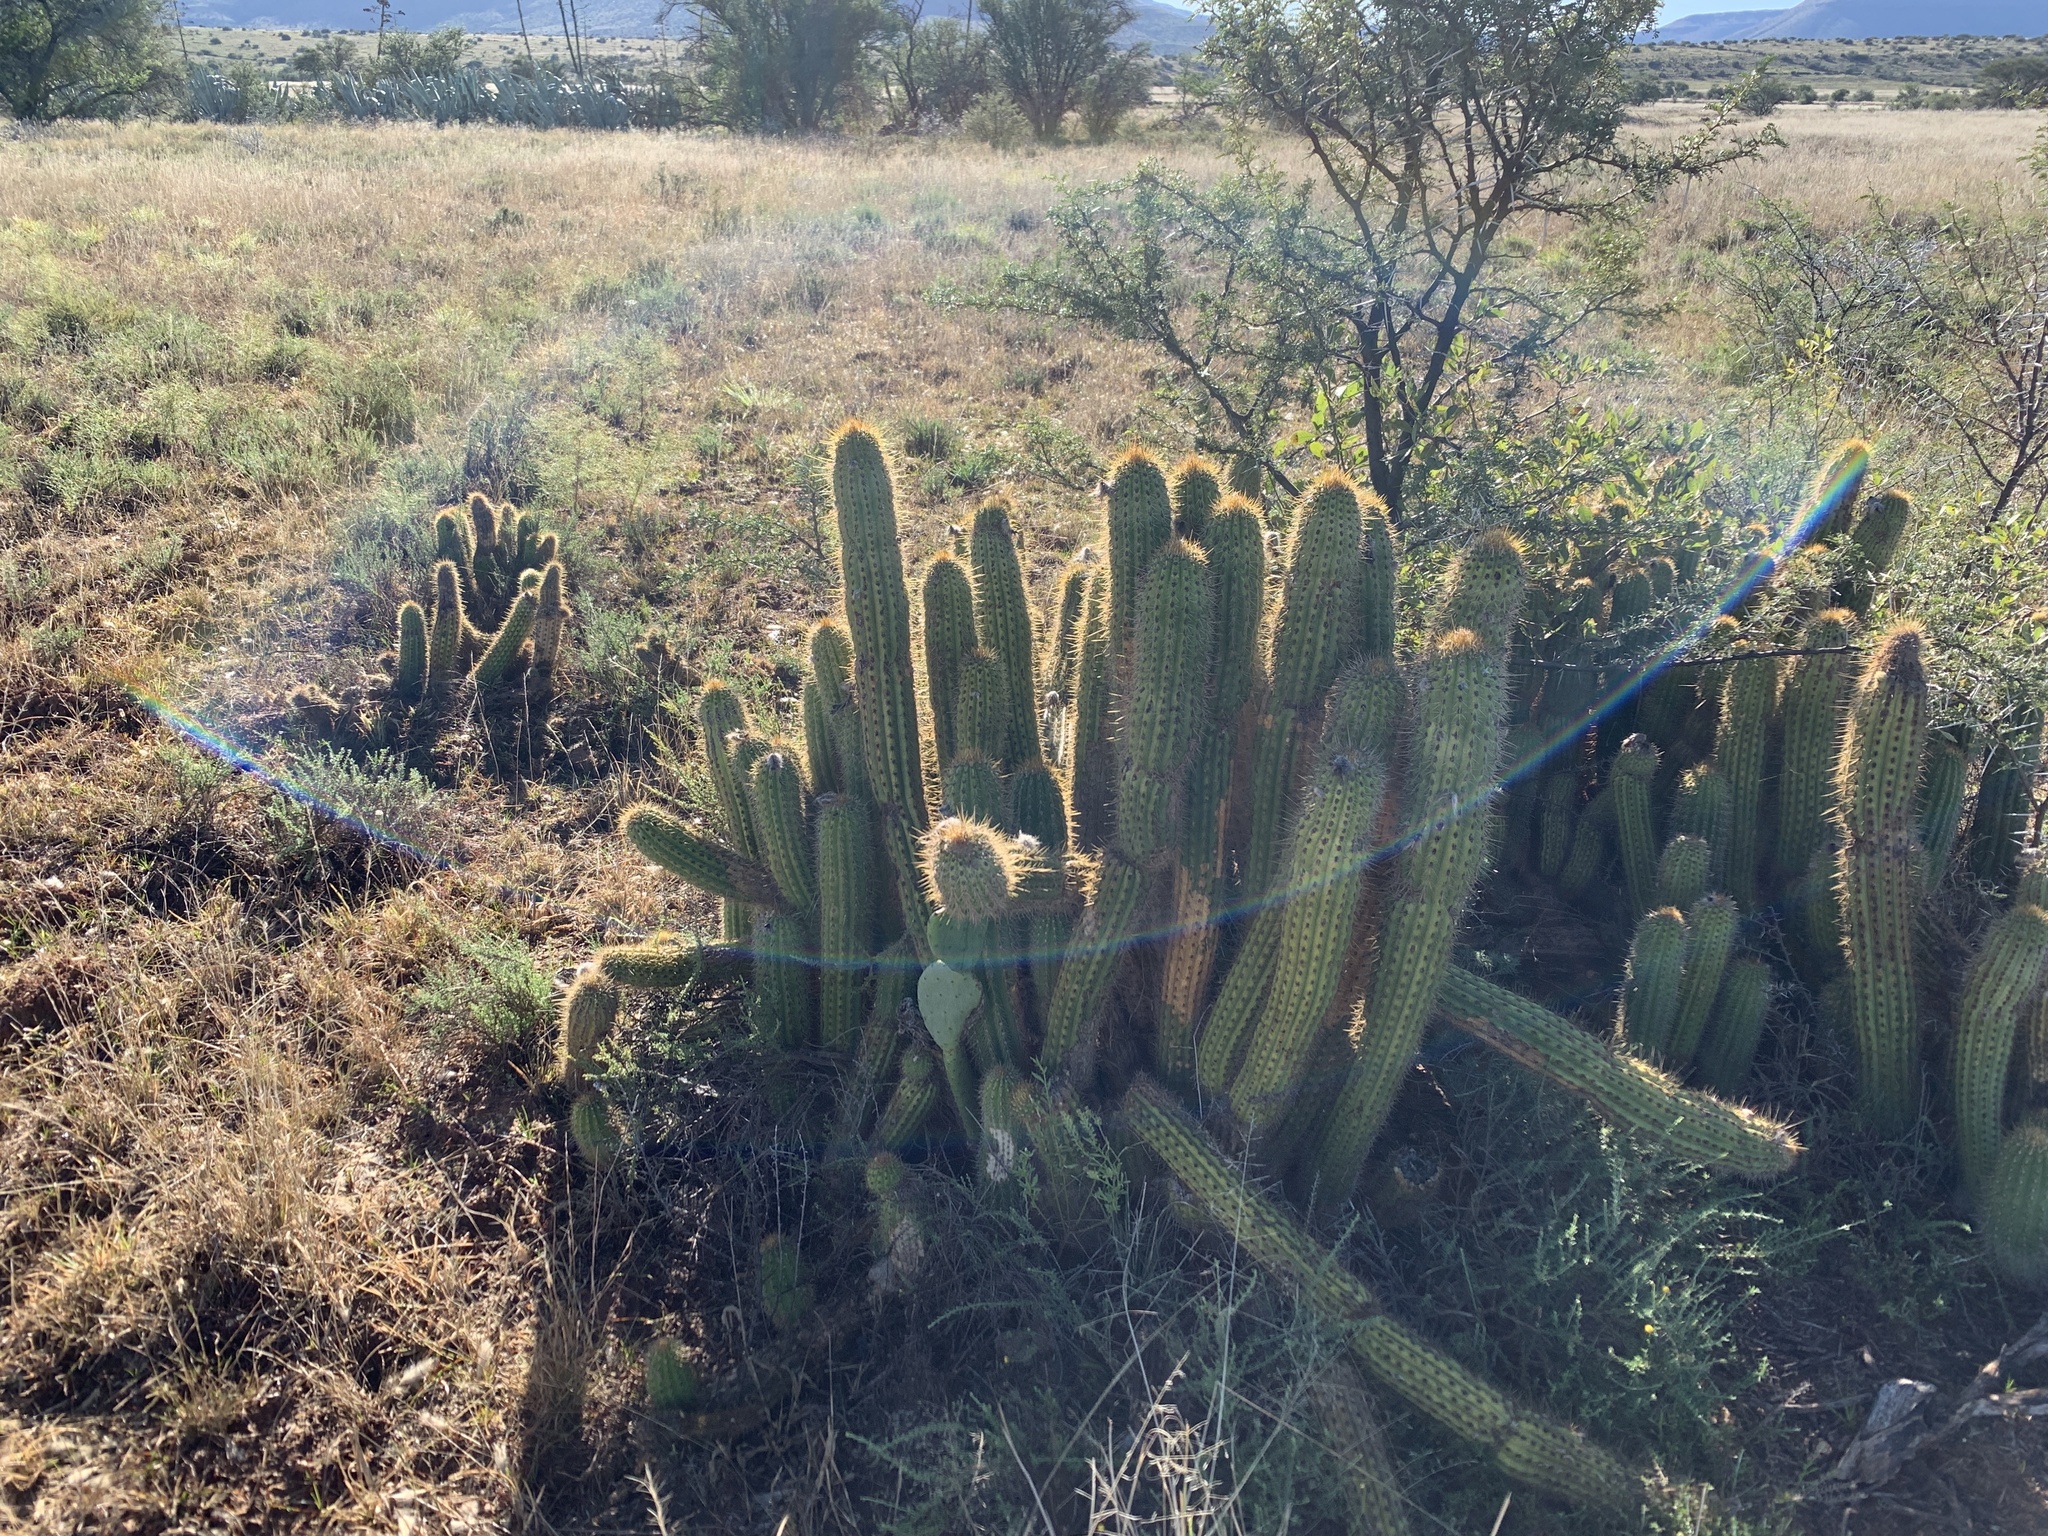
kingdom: Plantae
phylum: Tracheophyta
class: Magnoliopsida
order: Caryophyllales
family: Cactaceae
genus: Soehrensia
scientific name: Soehrensia spachiana
